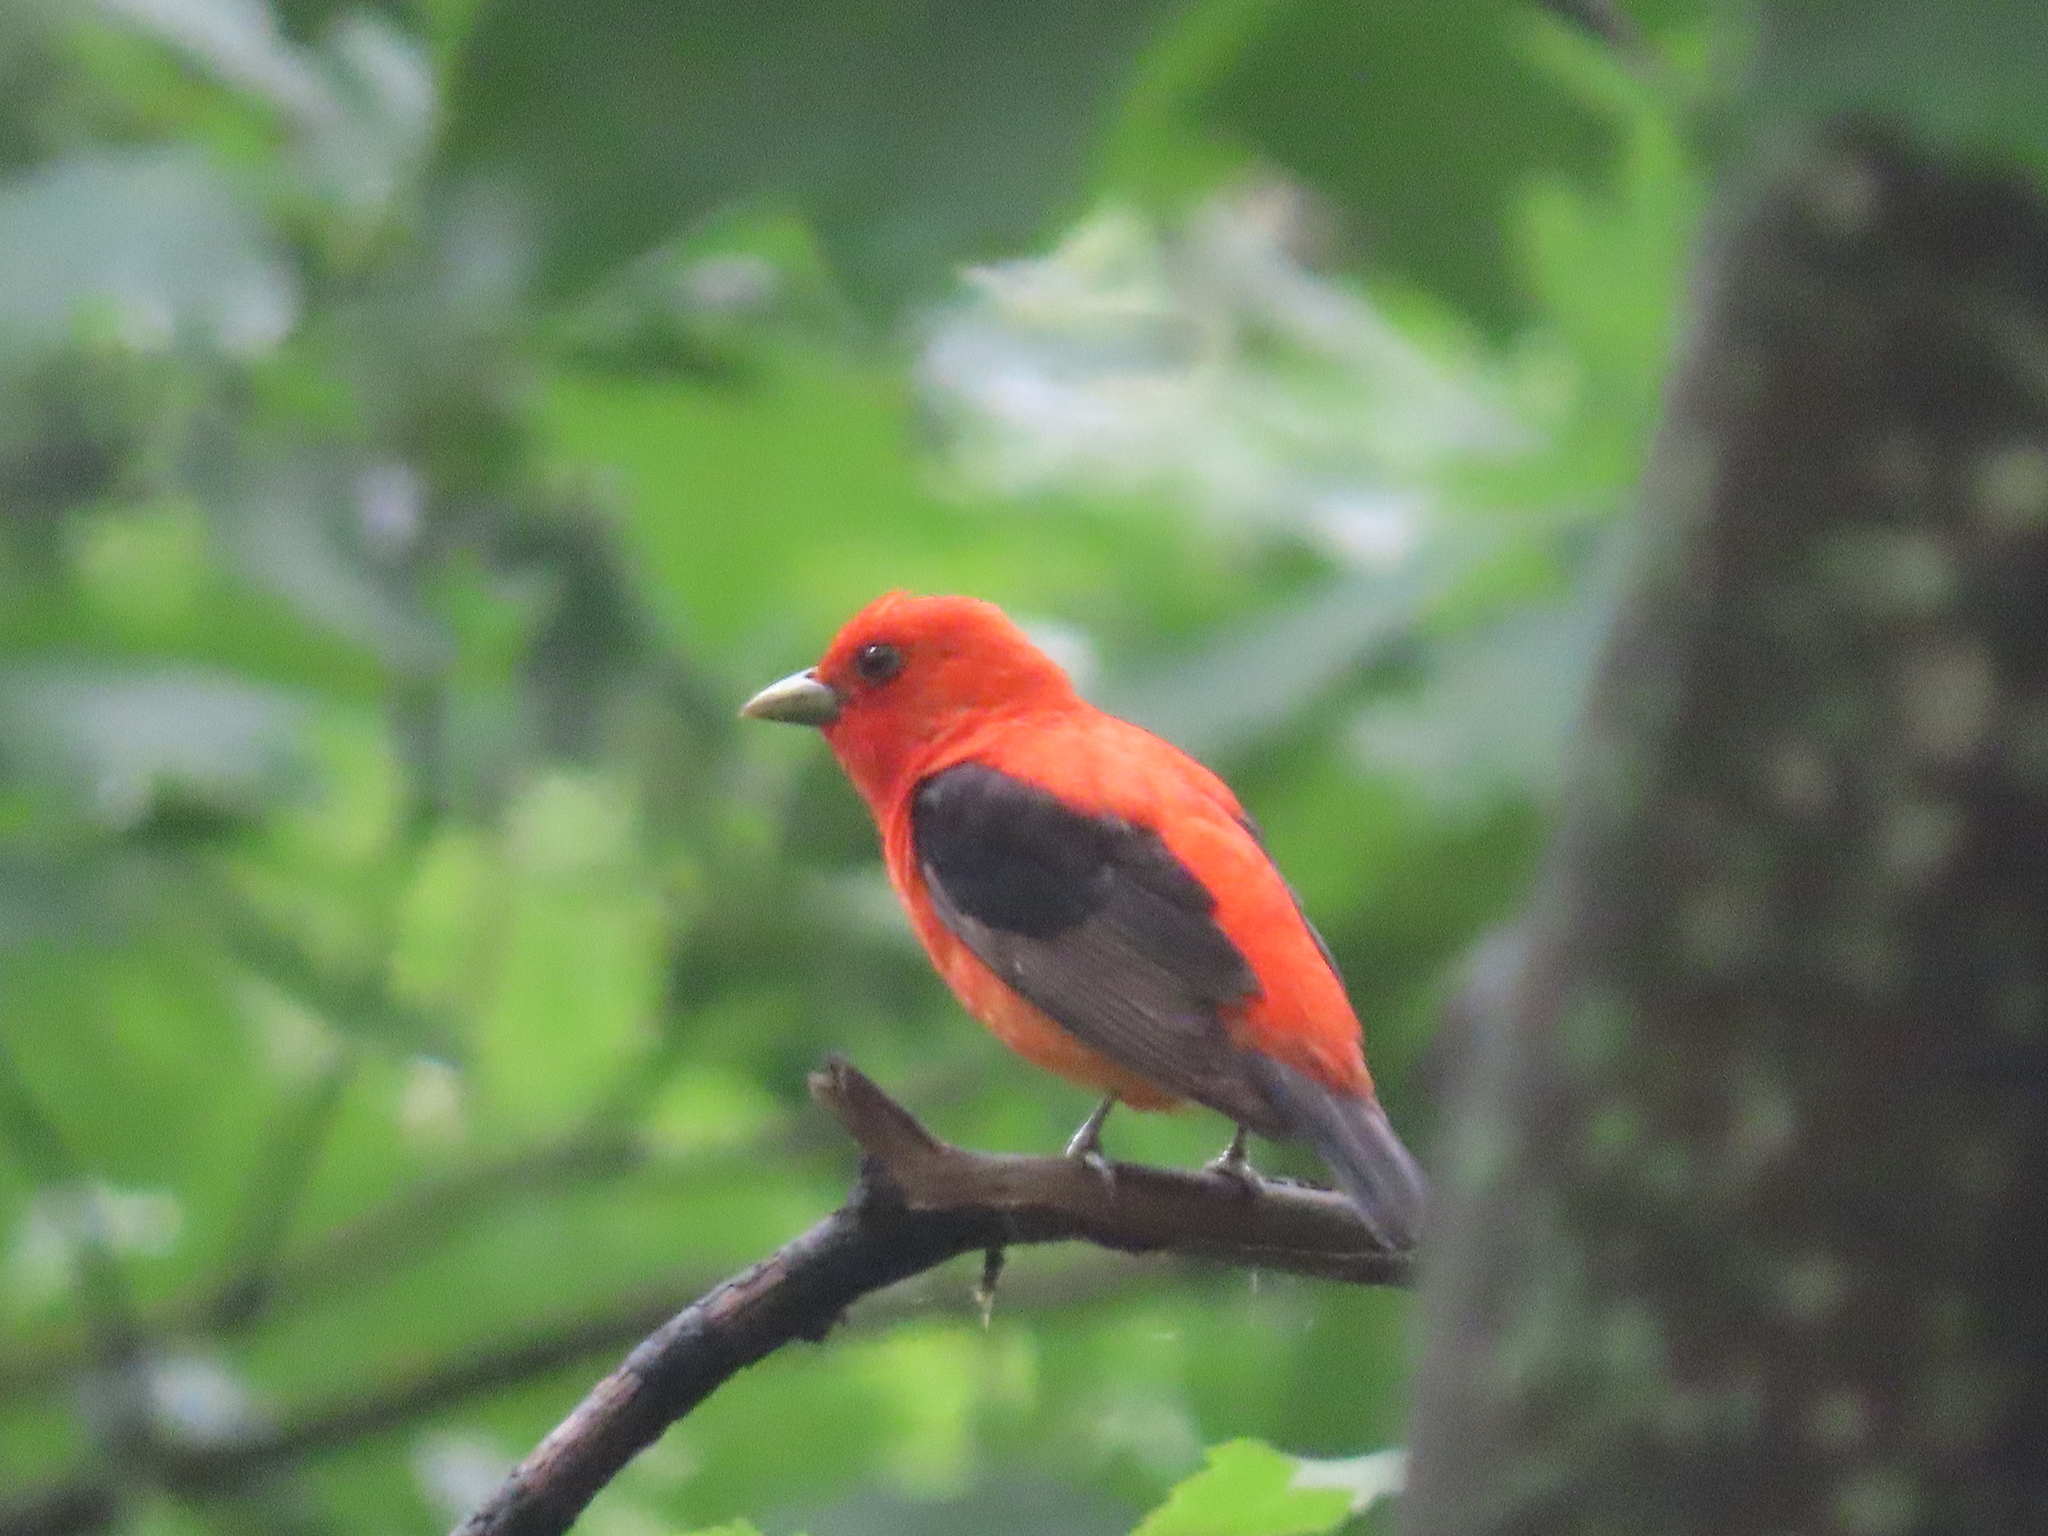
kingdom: Animalia
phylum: Chordata
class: Aves
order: Passeriformes
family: Cardinalidae
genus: Piranga
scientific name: Piranga olivacea
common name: Scarlet tanager
